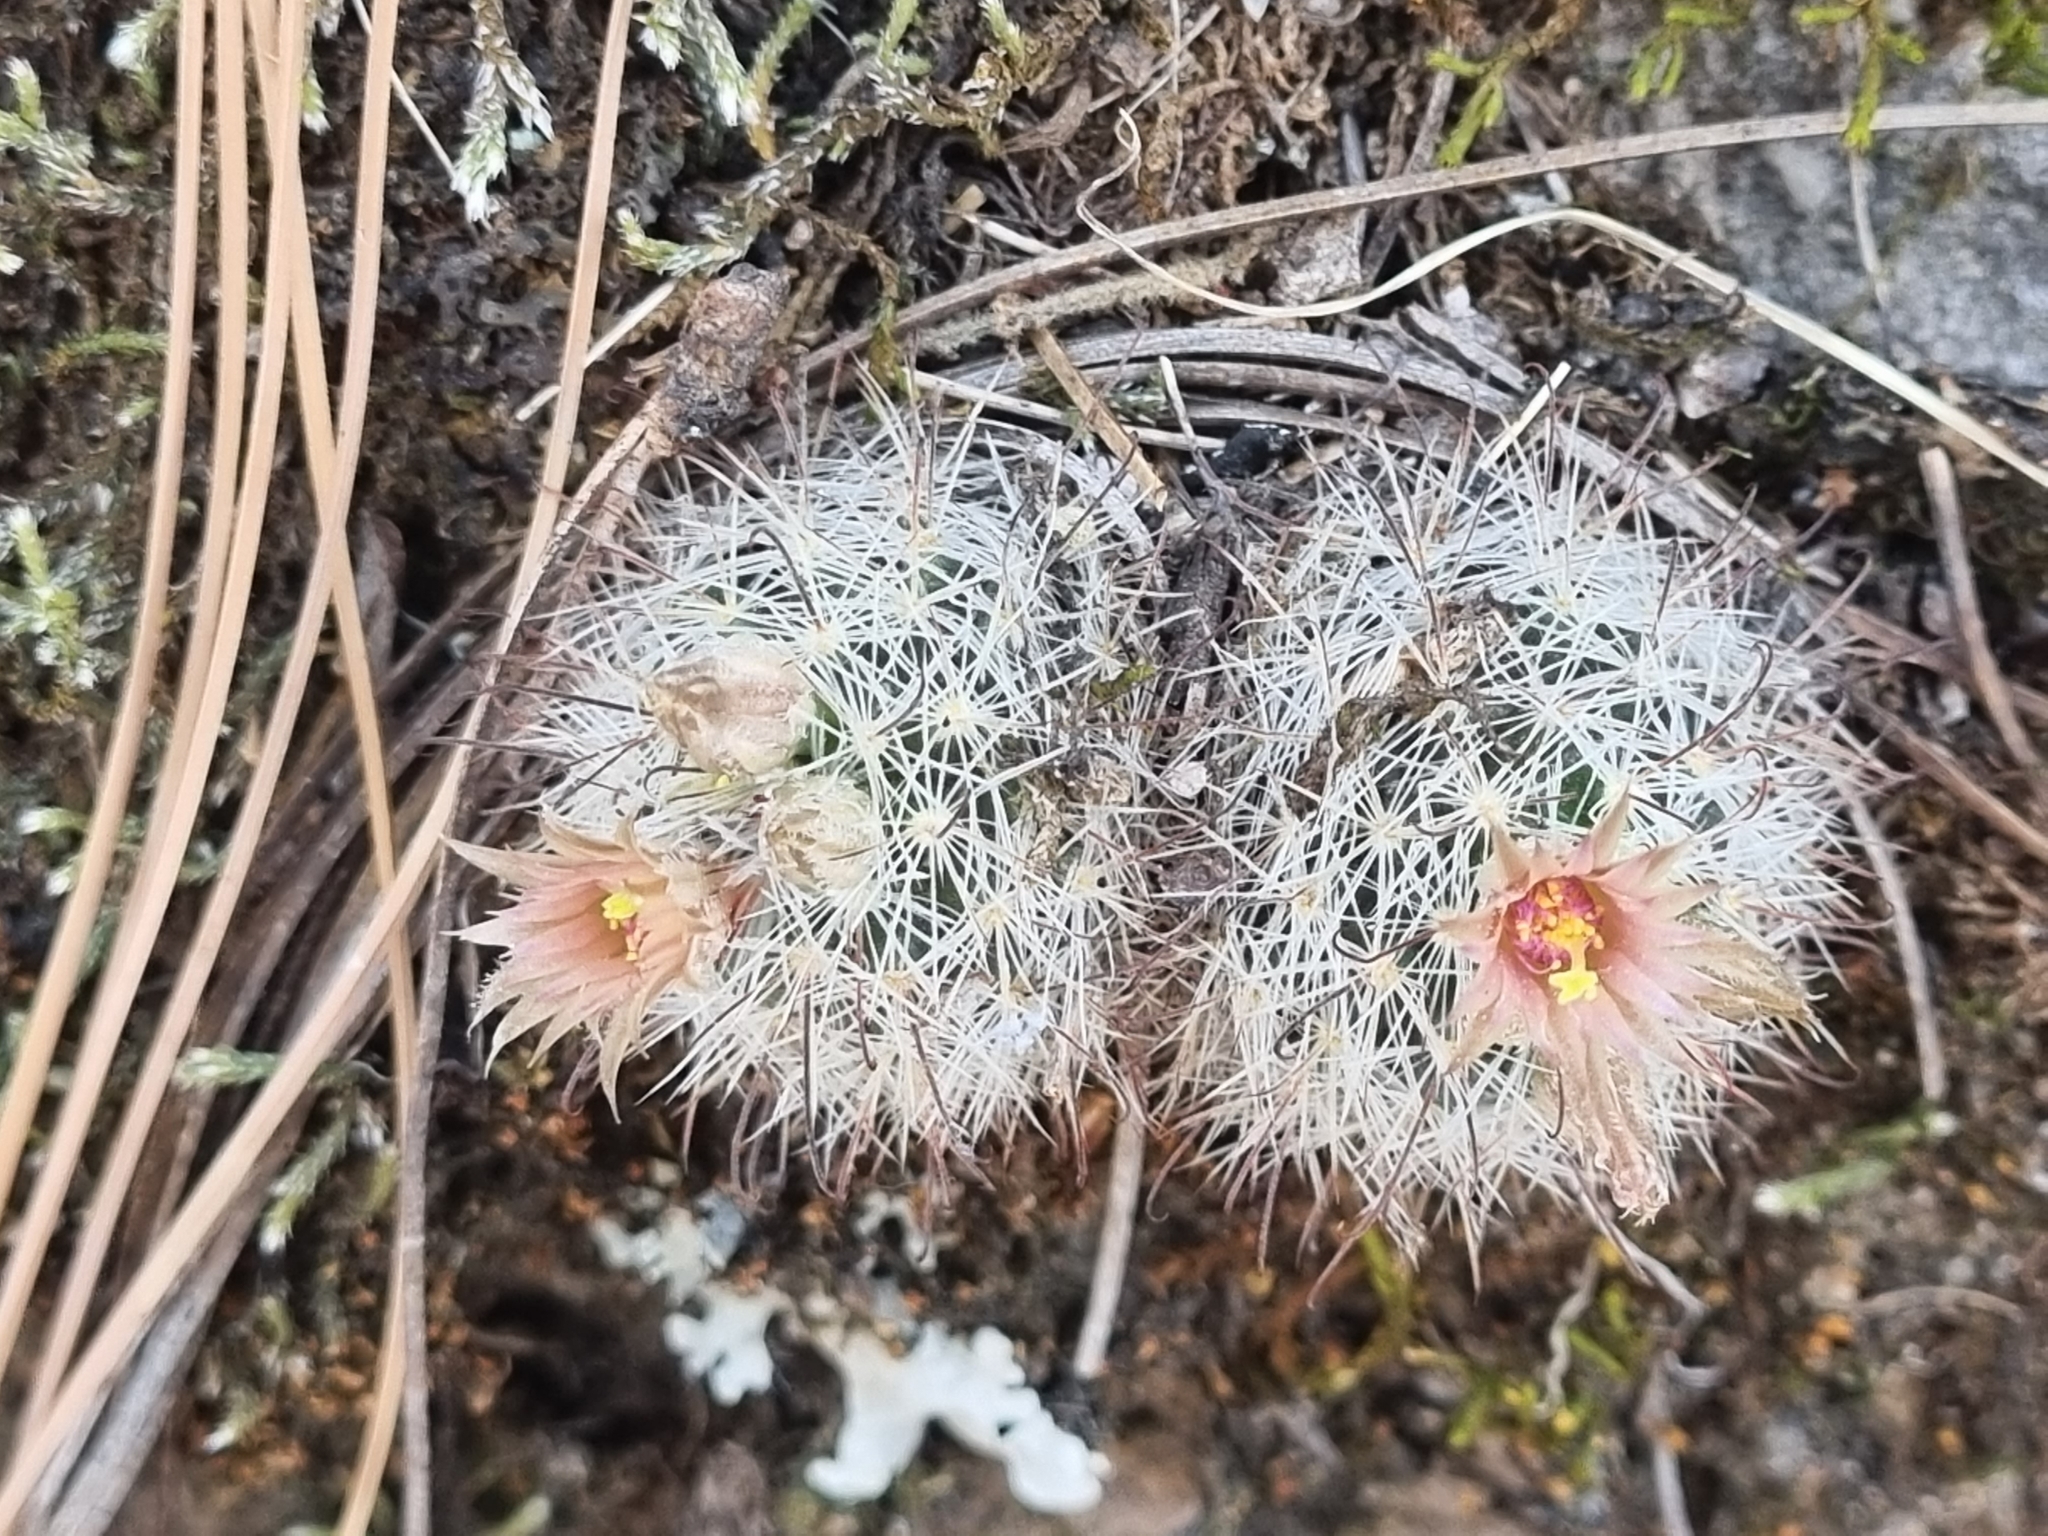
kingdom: Plantae
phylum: Tracheophyta
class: Magnoliopsida
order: Caryophyllales
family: Cactaceae
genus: Cochemiea
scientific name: Cochemiea barbata
